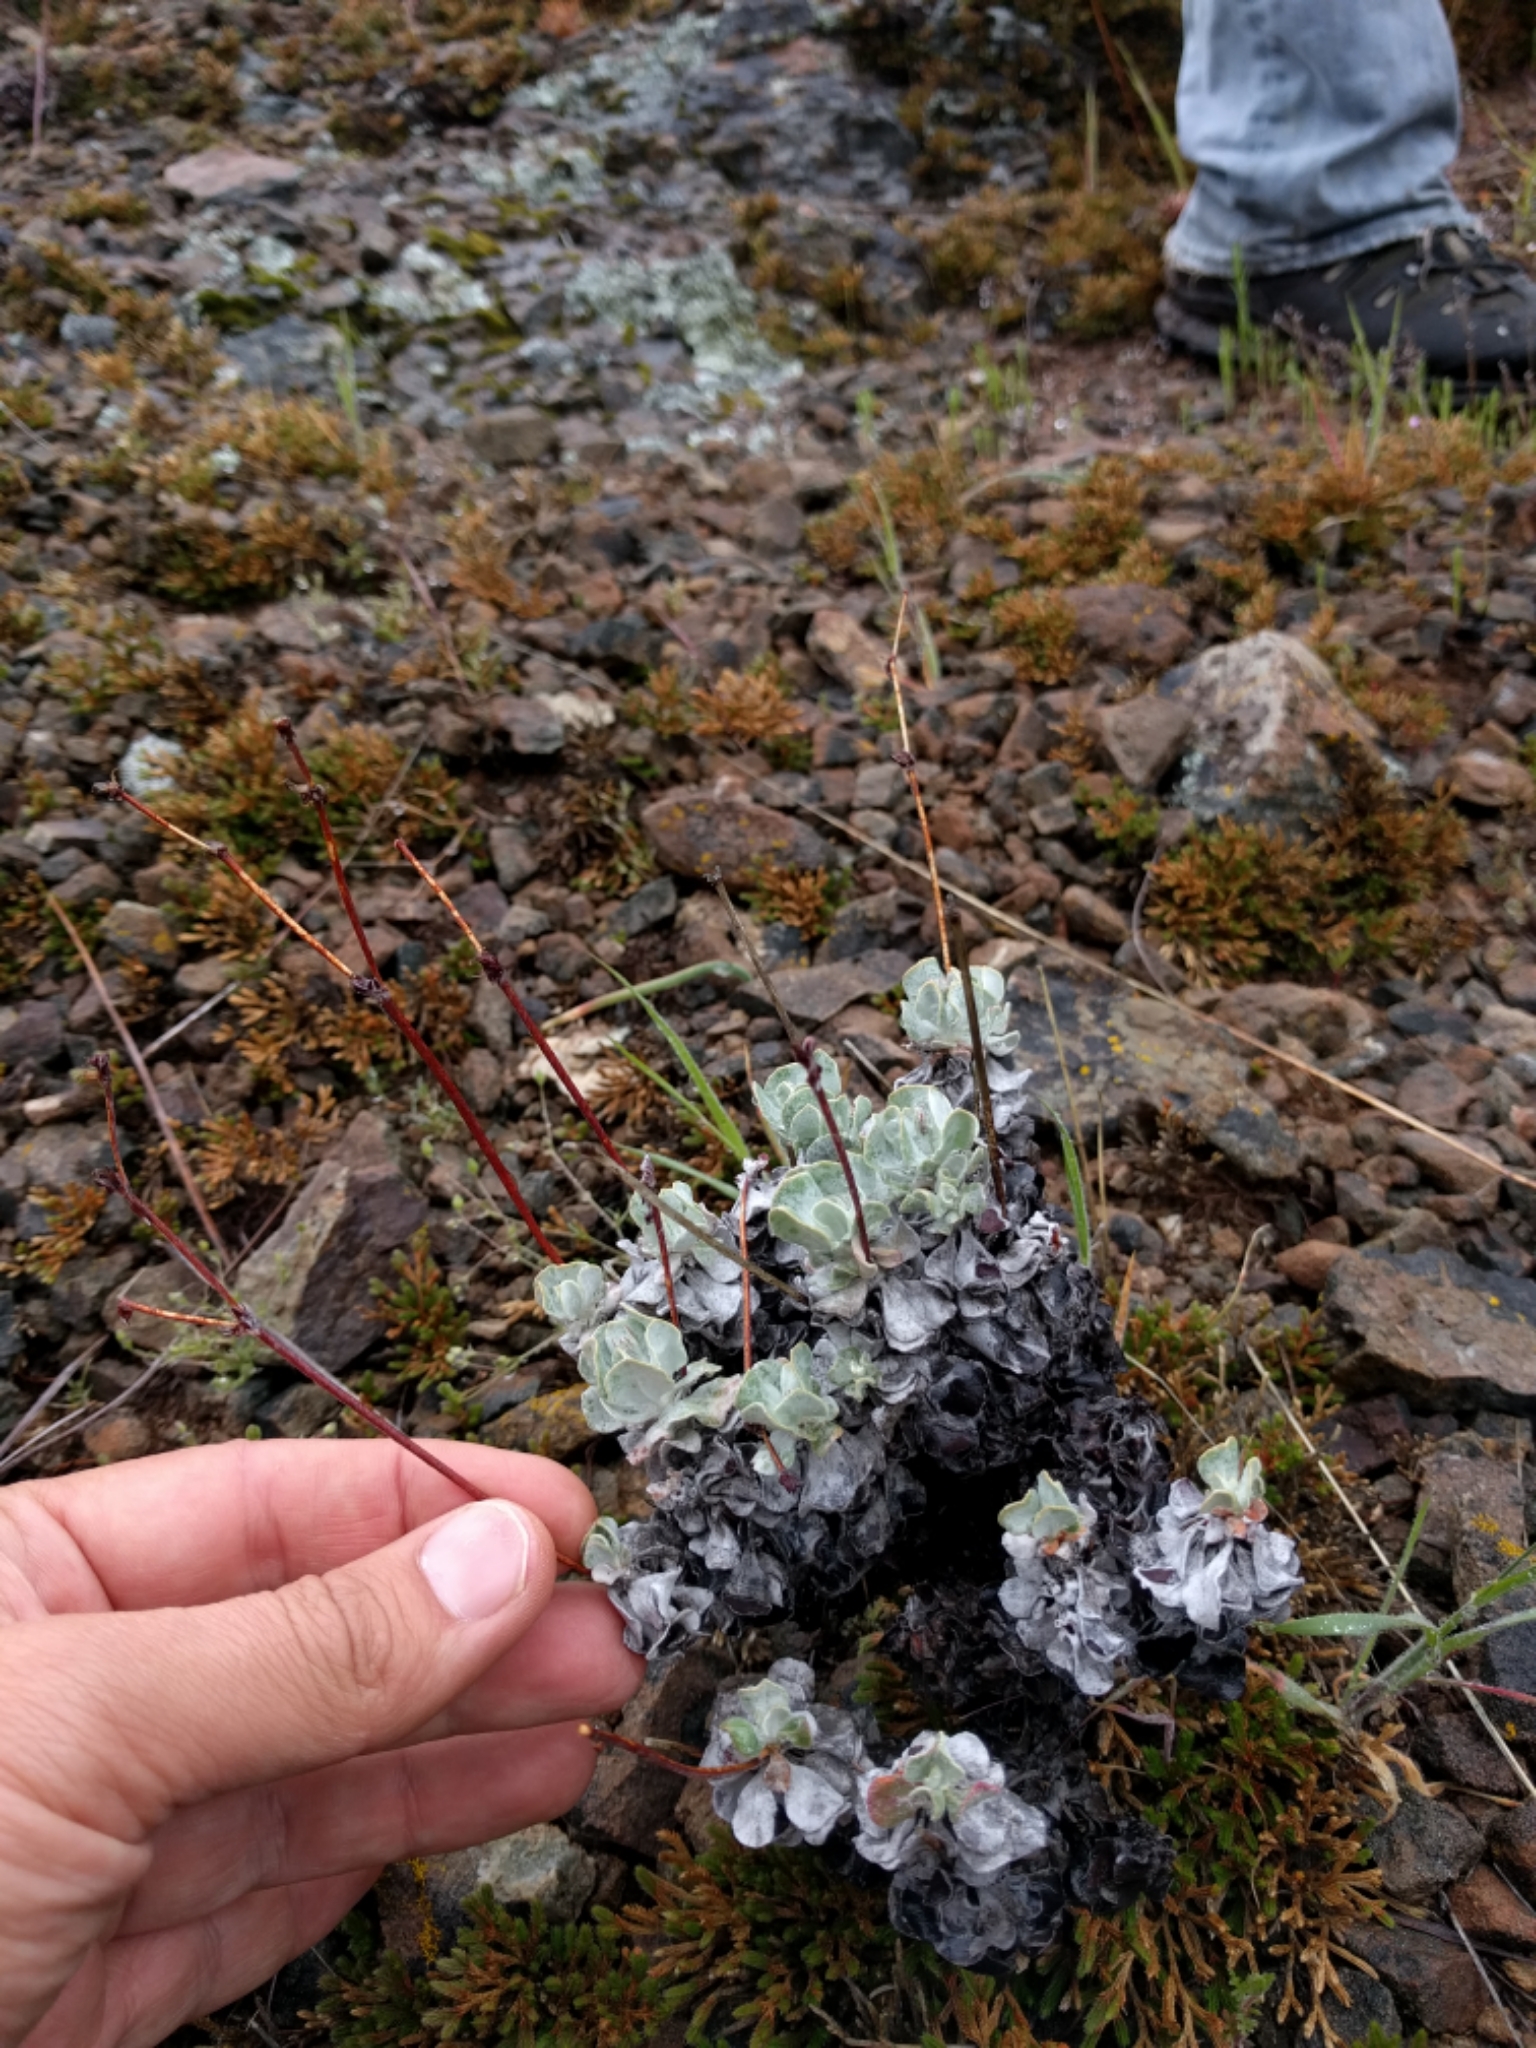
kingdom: Plantae
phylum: Tracheophyta
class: Magnoliopsida
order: Caryophyllales
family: Polygonaceae
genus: Eriogonum
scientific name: Eriogonum saxatile
